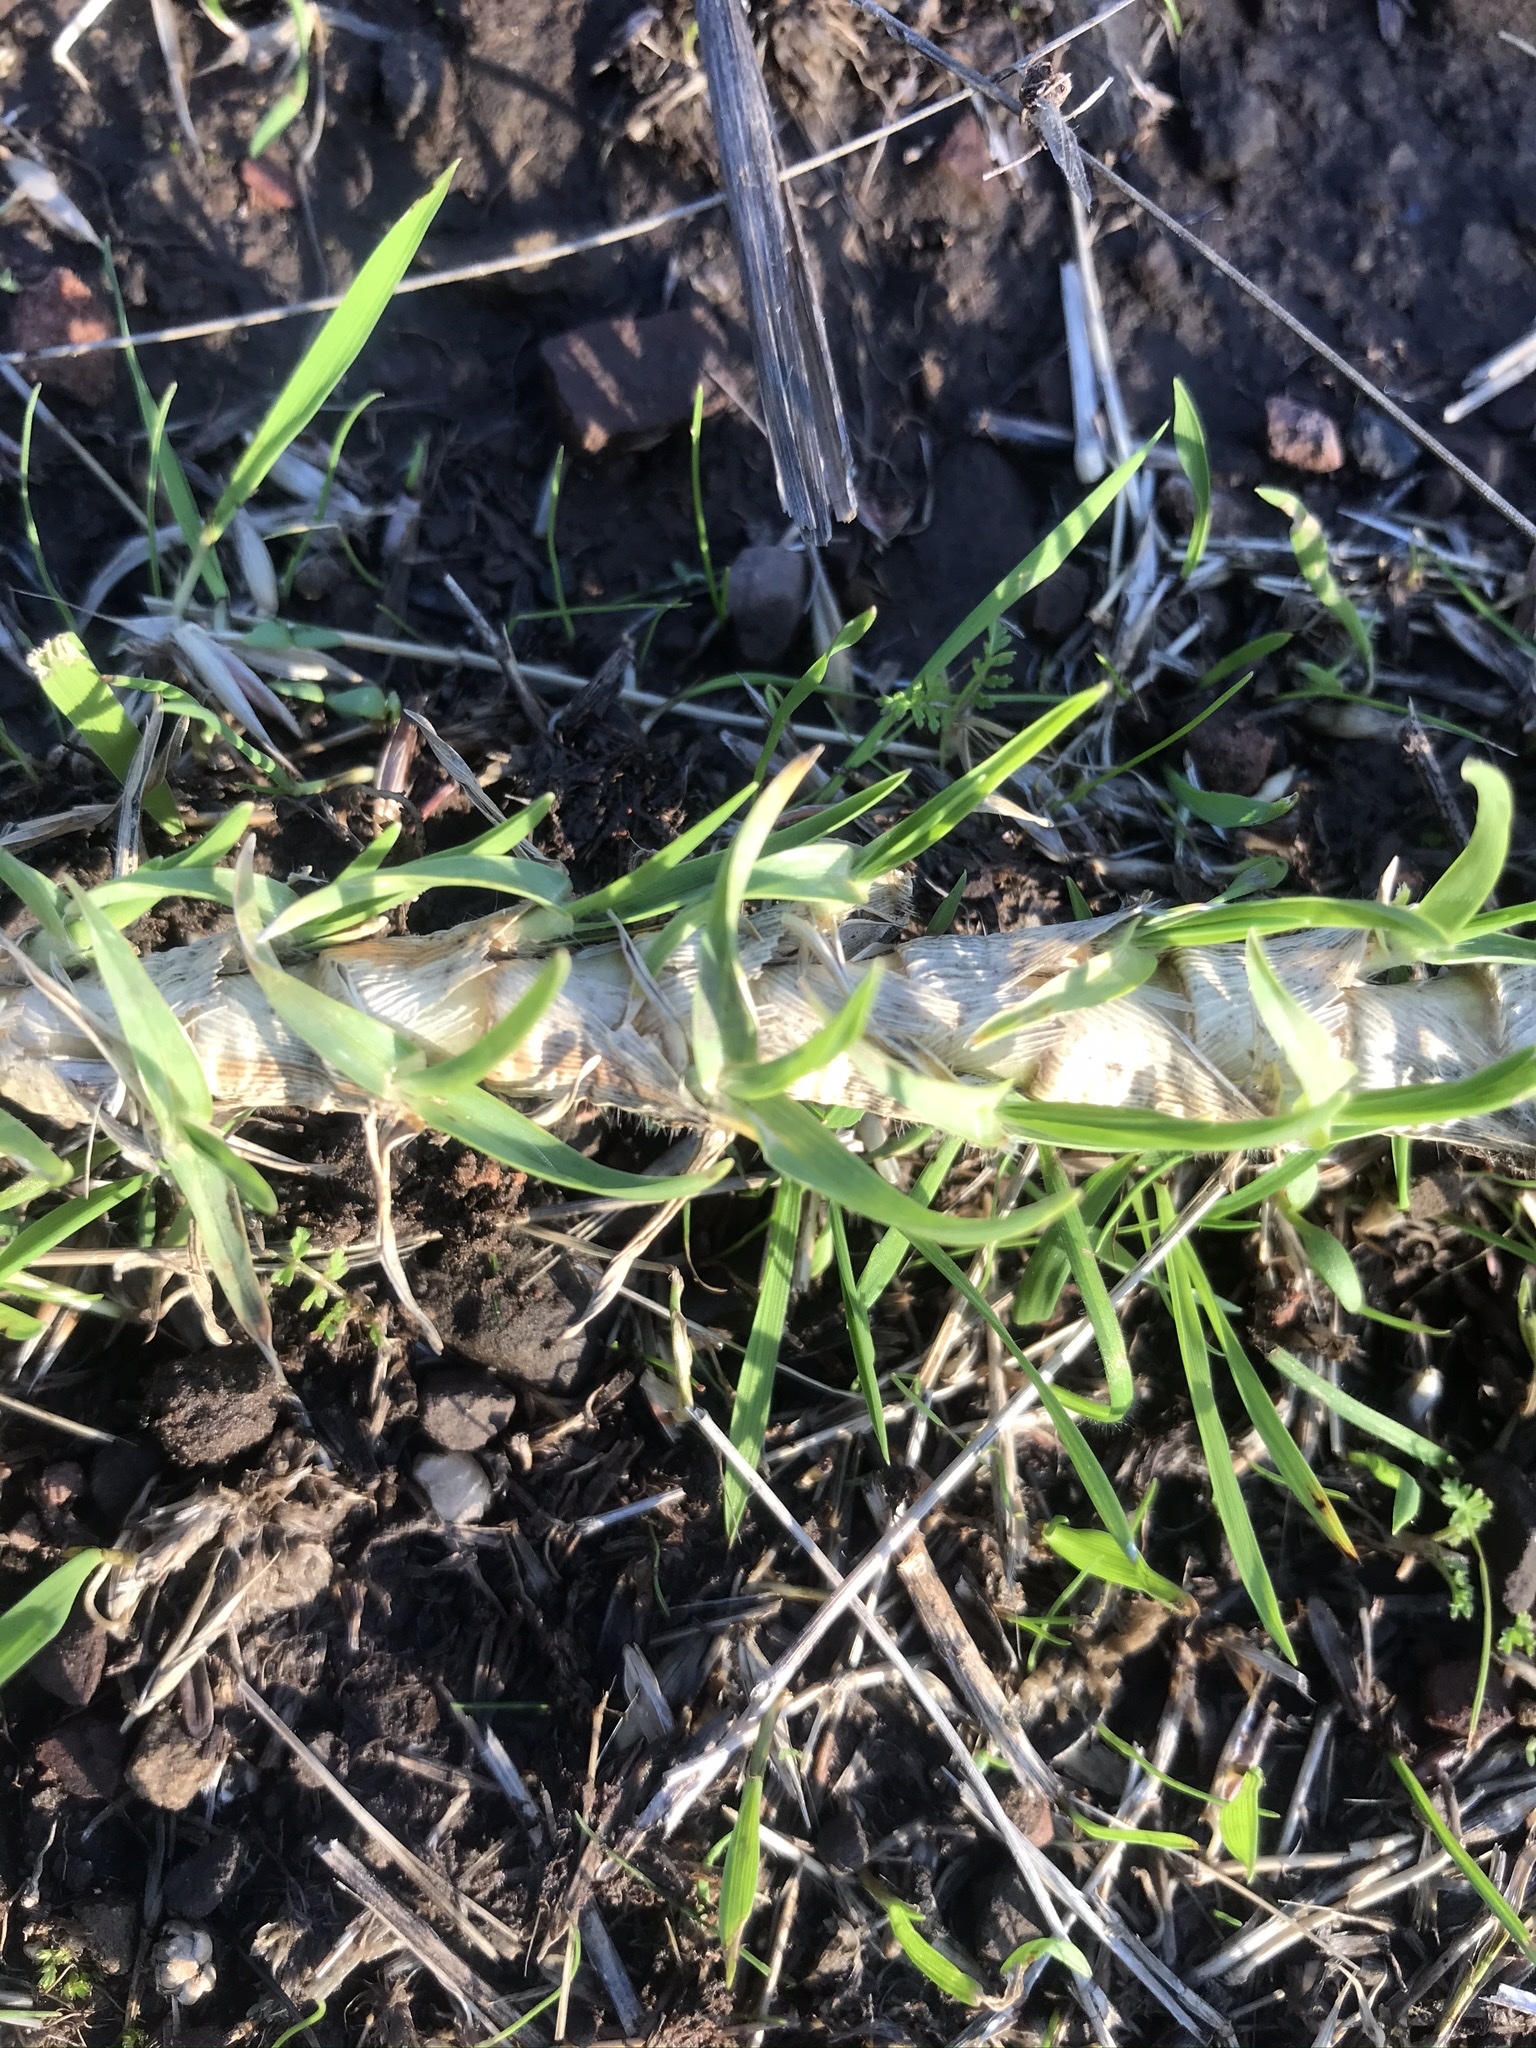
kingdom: Plantae
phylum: Tracheophyta
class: Liliopsida
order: Poales
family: Poaceae
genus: Cenchrus
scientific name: Cenchrus clandestinus
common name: Kikuyugrass
